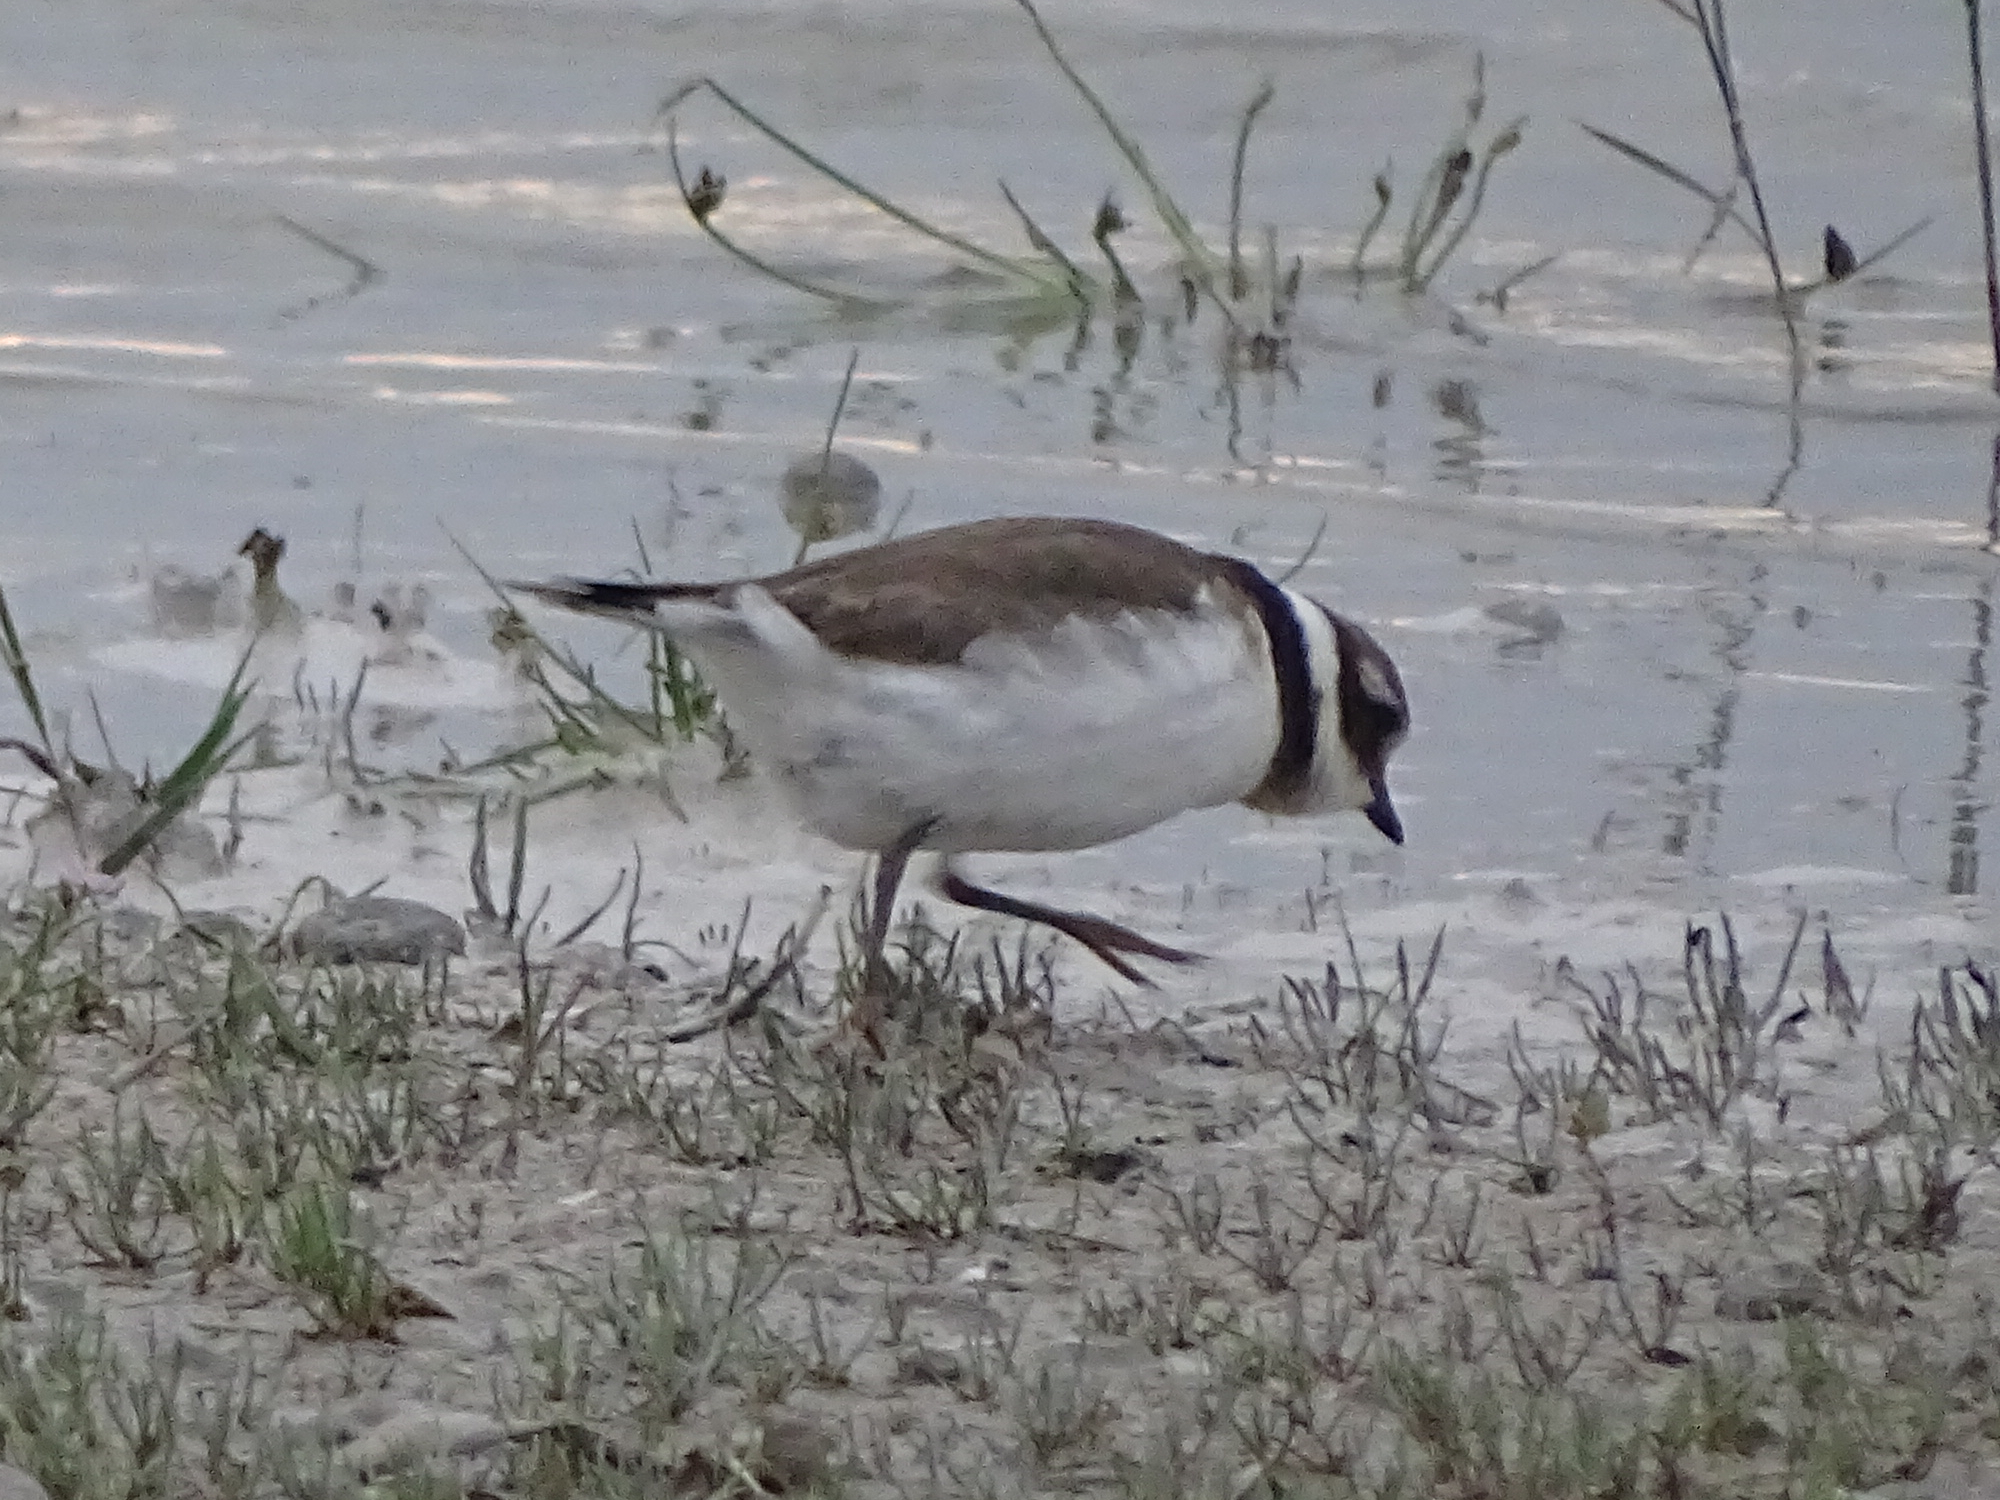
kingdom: Animalia
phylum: Chordata
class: Aves
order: Charadriiformes
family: Charadriidae
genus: Charadrius
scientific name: Charadrius hiaticula
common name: Common ringed plover
